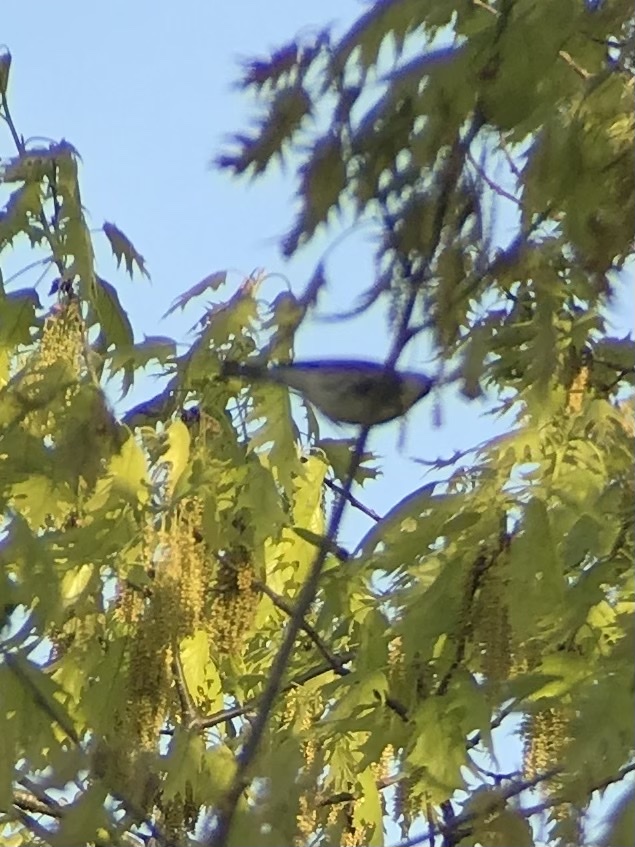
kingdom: Animalia
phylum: Chordata
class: Aves
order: Passeriformes
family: Parulidae
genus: Setophaga
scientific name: Setophaga coronata
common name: Myrtle warbler
